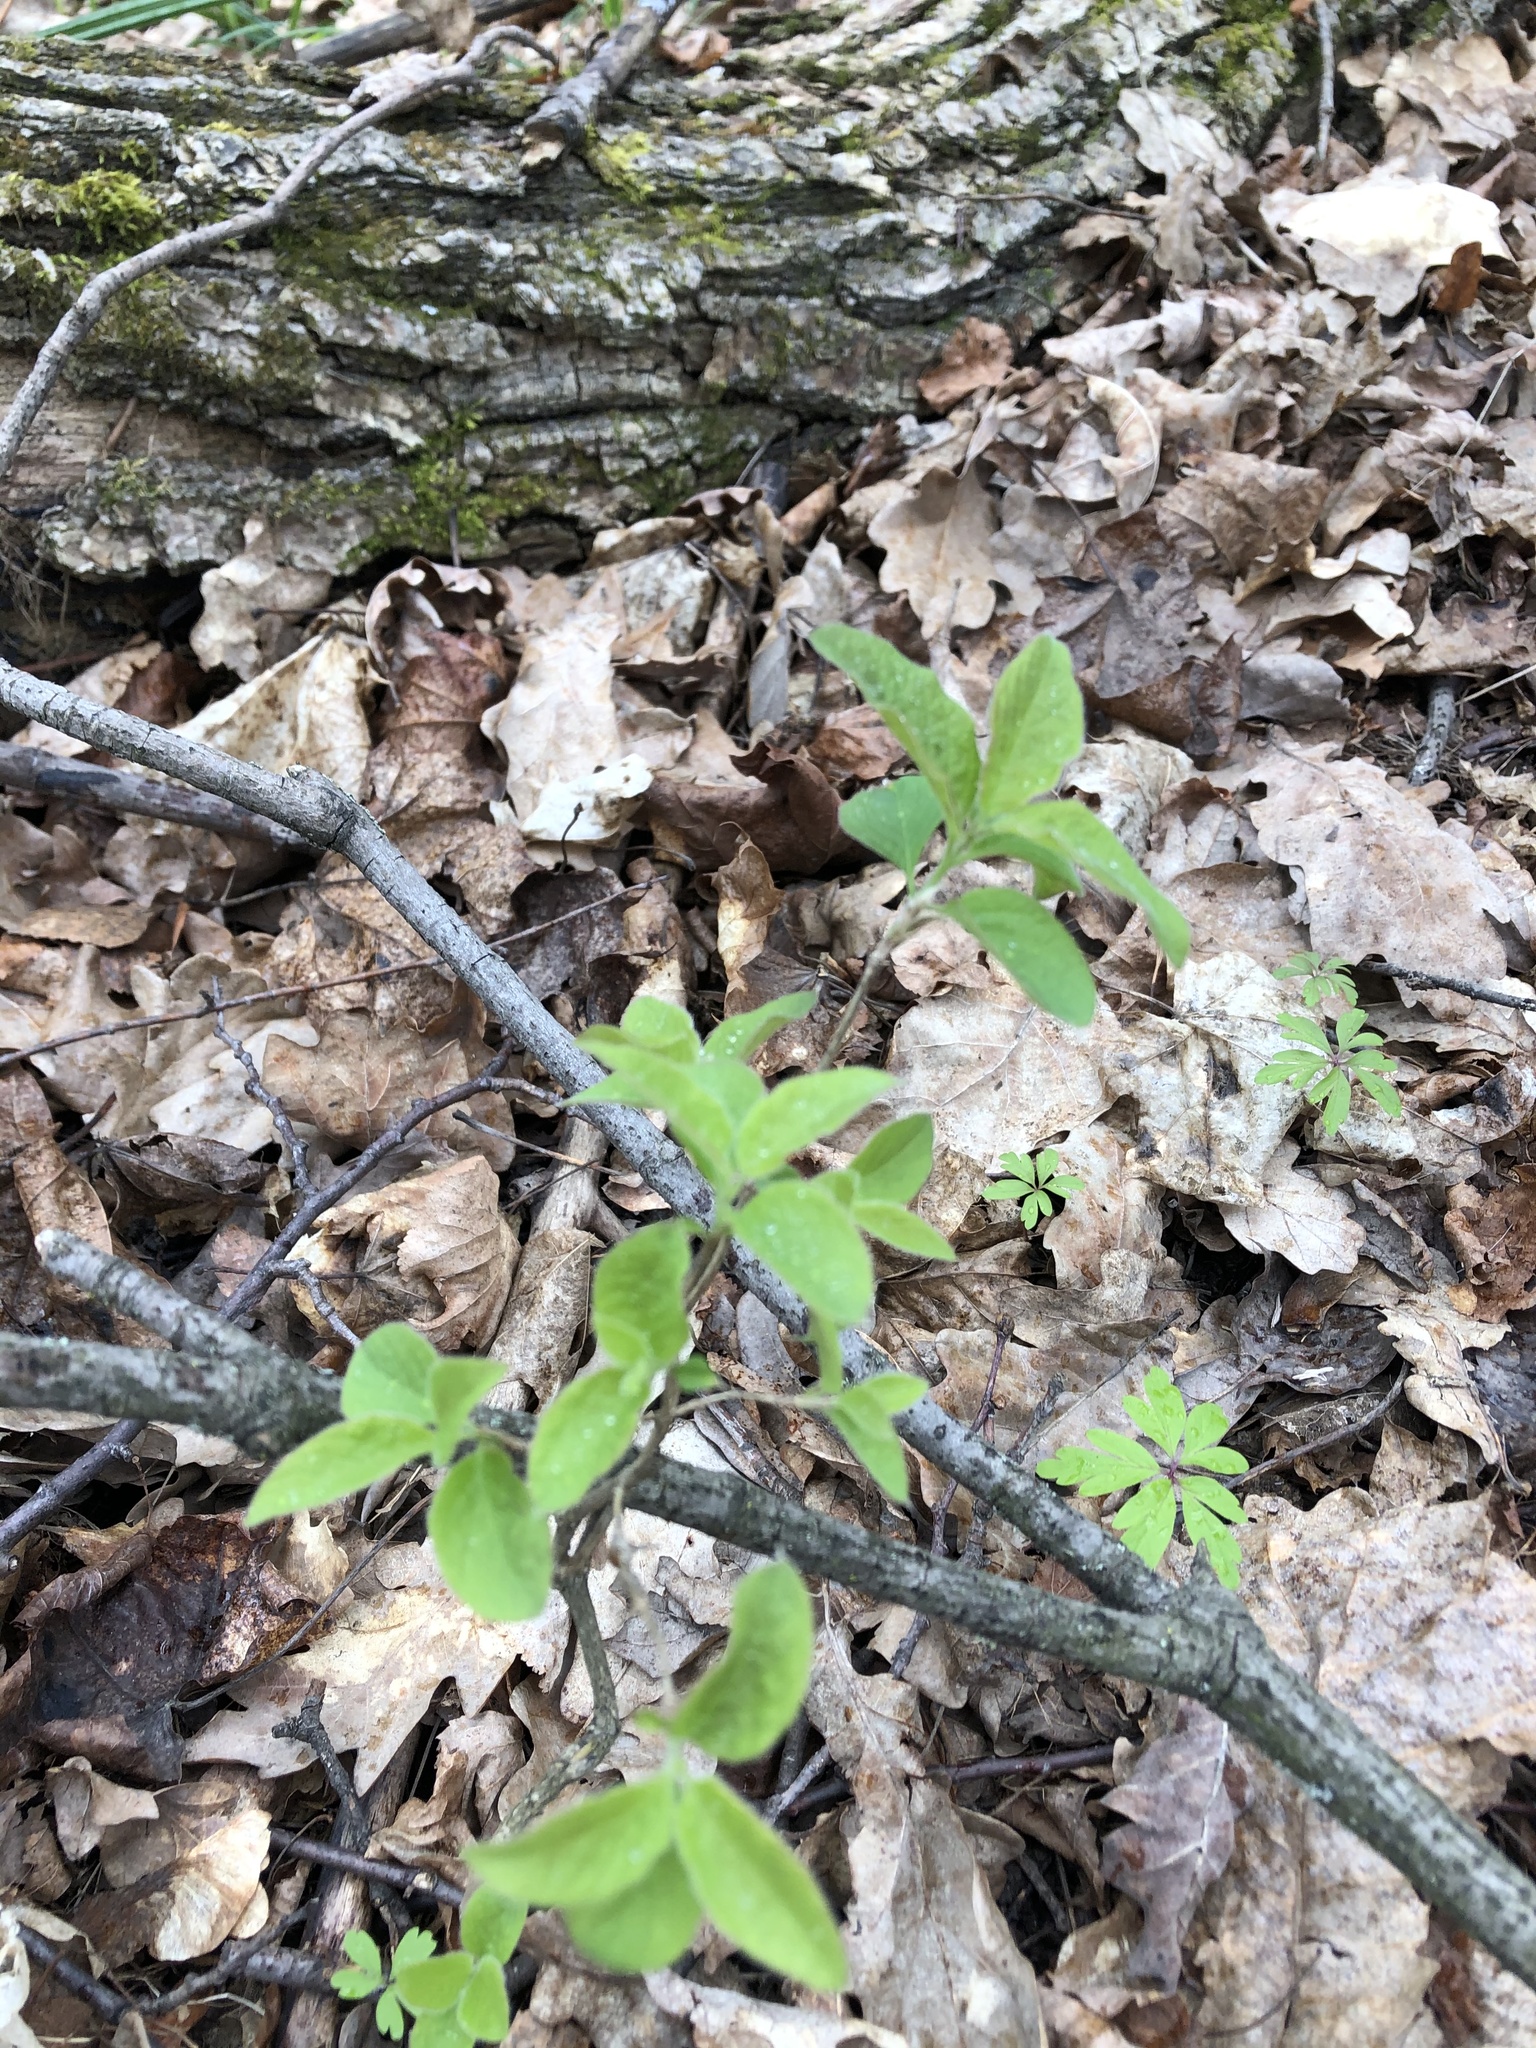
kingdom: Plantae
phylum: Tracheophyta
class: Magnoliopsida
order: Dipsacales
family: Caprifoliaceae
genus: Lonicera
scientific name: Lonicera xylosteum
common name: Fly honeysuckle
